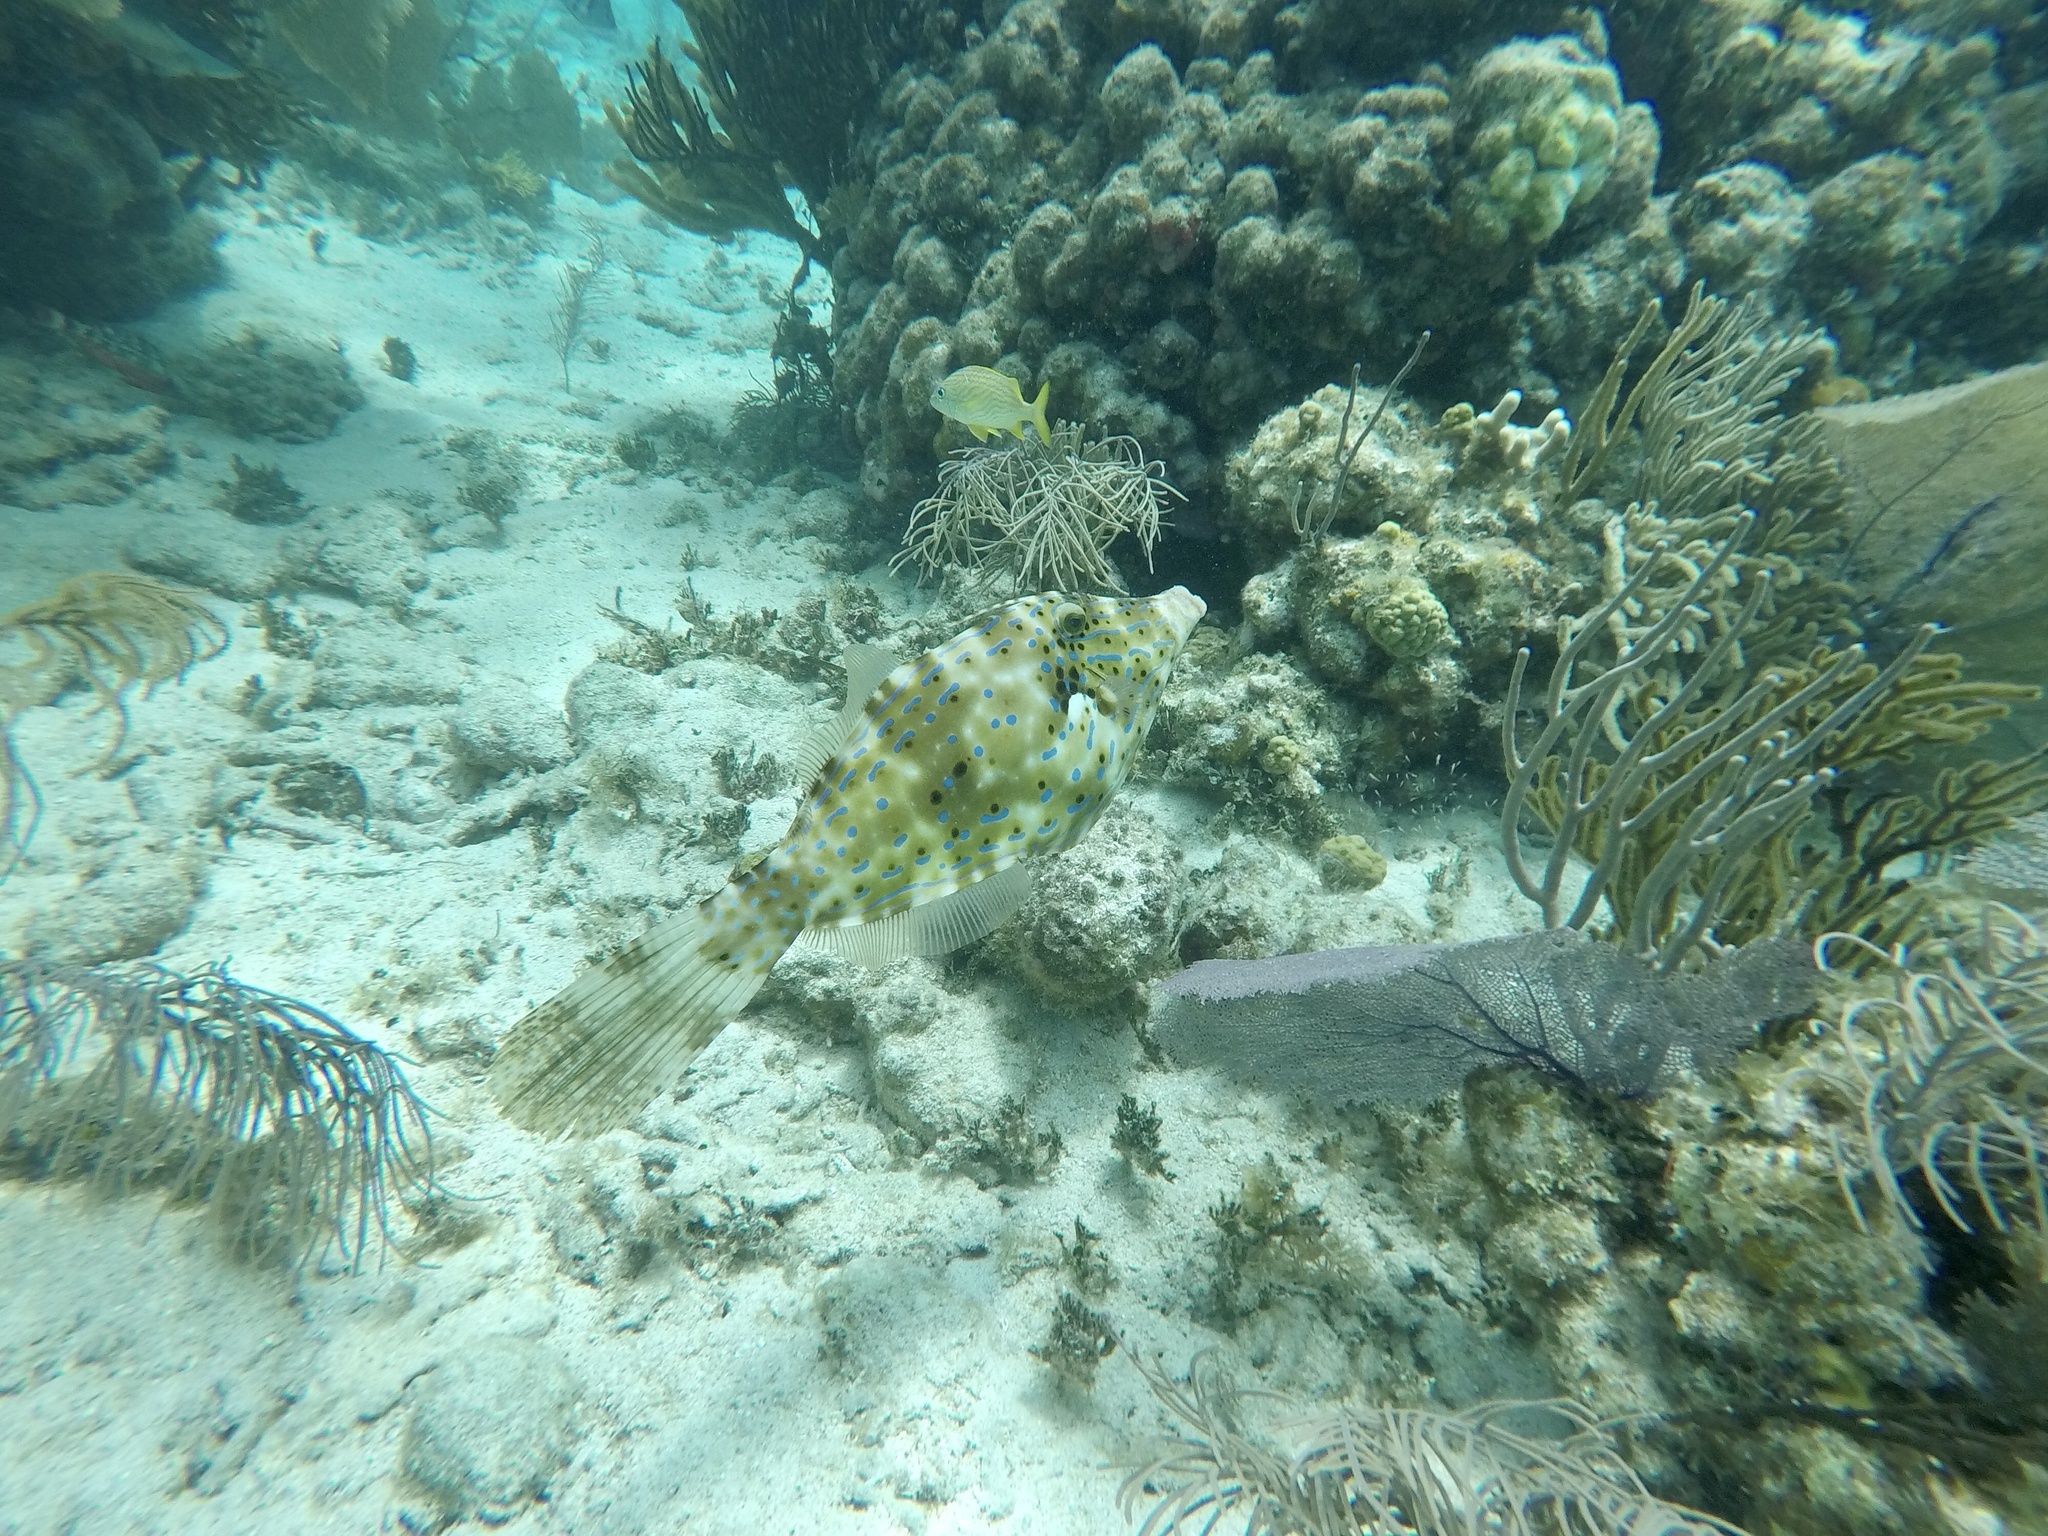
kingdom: Animalia
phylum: Chordata
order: Tetraodontiformes
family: Monacanthidae
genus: Aluterus
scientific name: Aluterus scriptus
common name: Scribbled leatherjacket filefish
